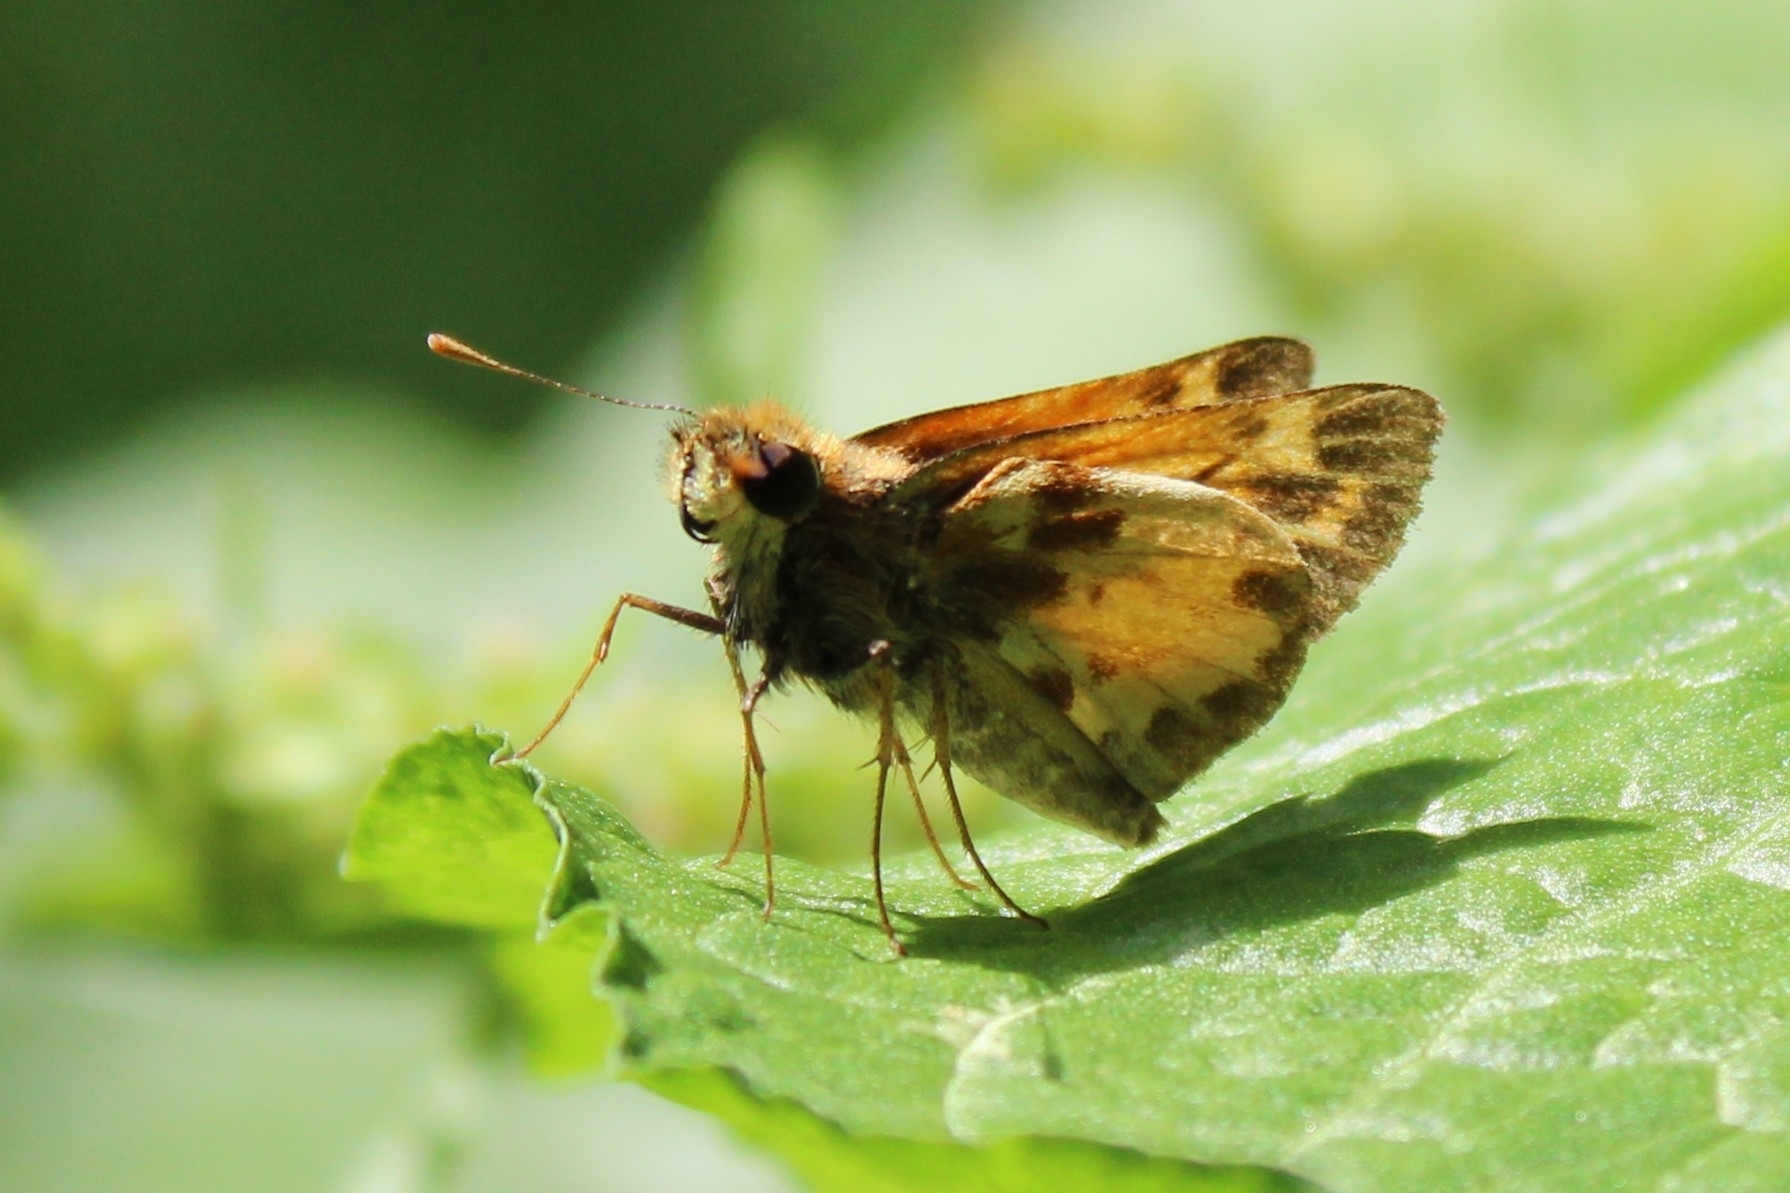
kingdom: Animalia
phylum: Arthropoda
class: Insecta
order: Lepidoptera
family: Hesperiidae
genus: Lon
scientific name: Lon zabulon
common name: Zabulon skipper
